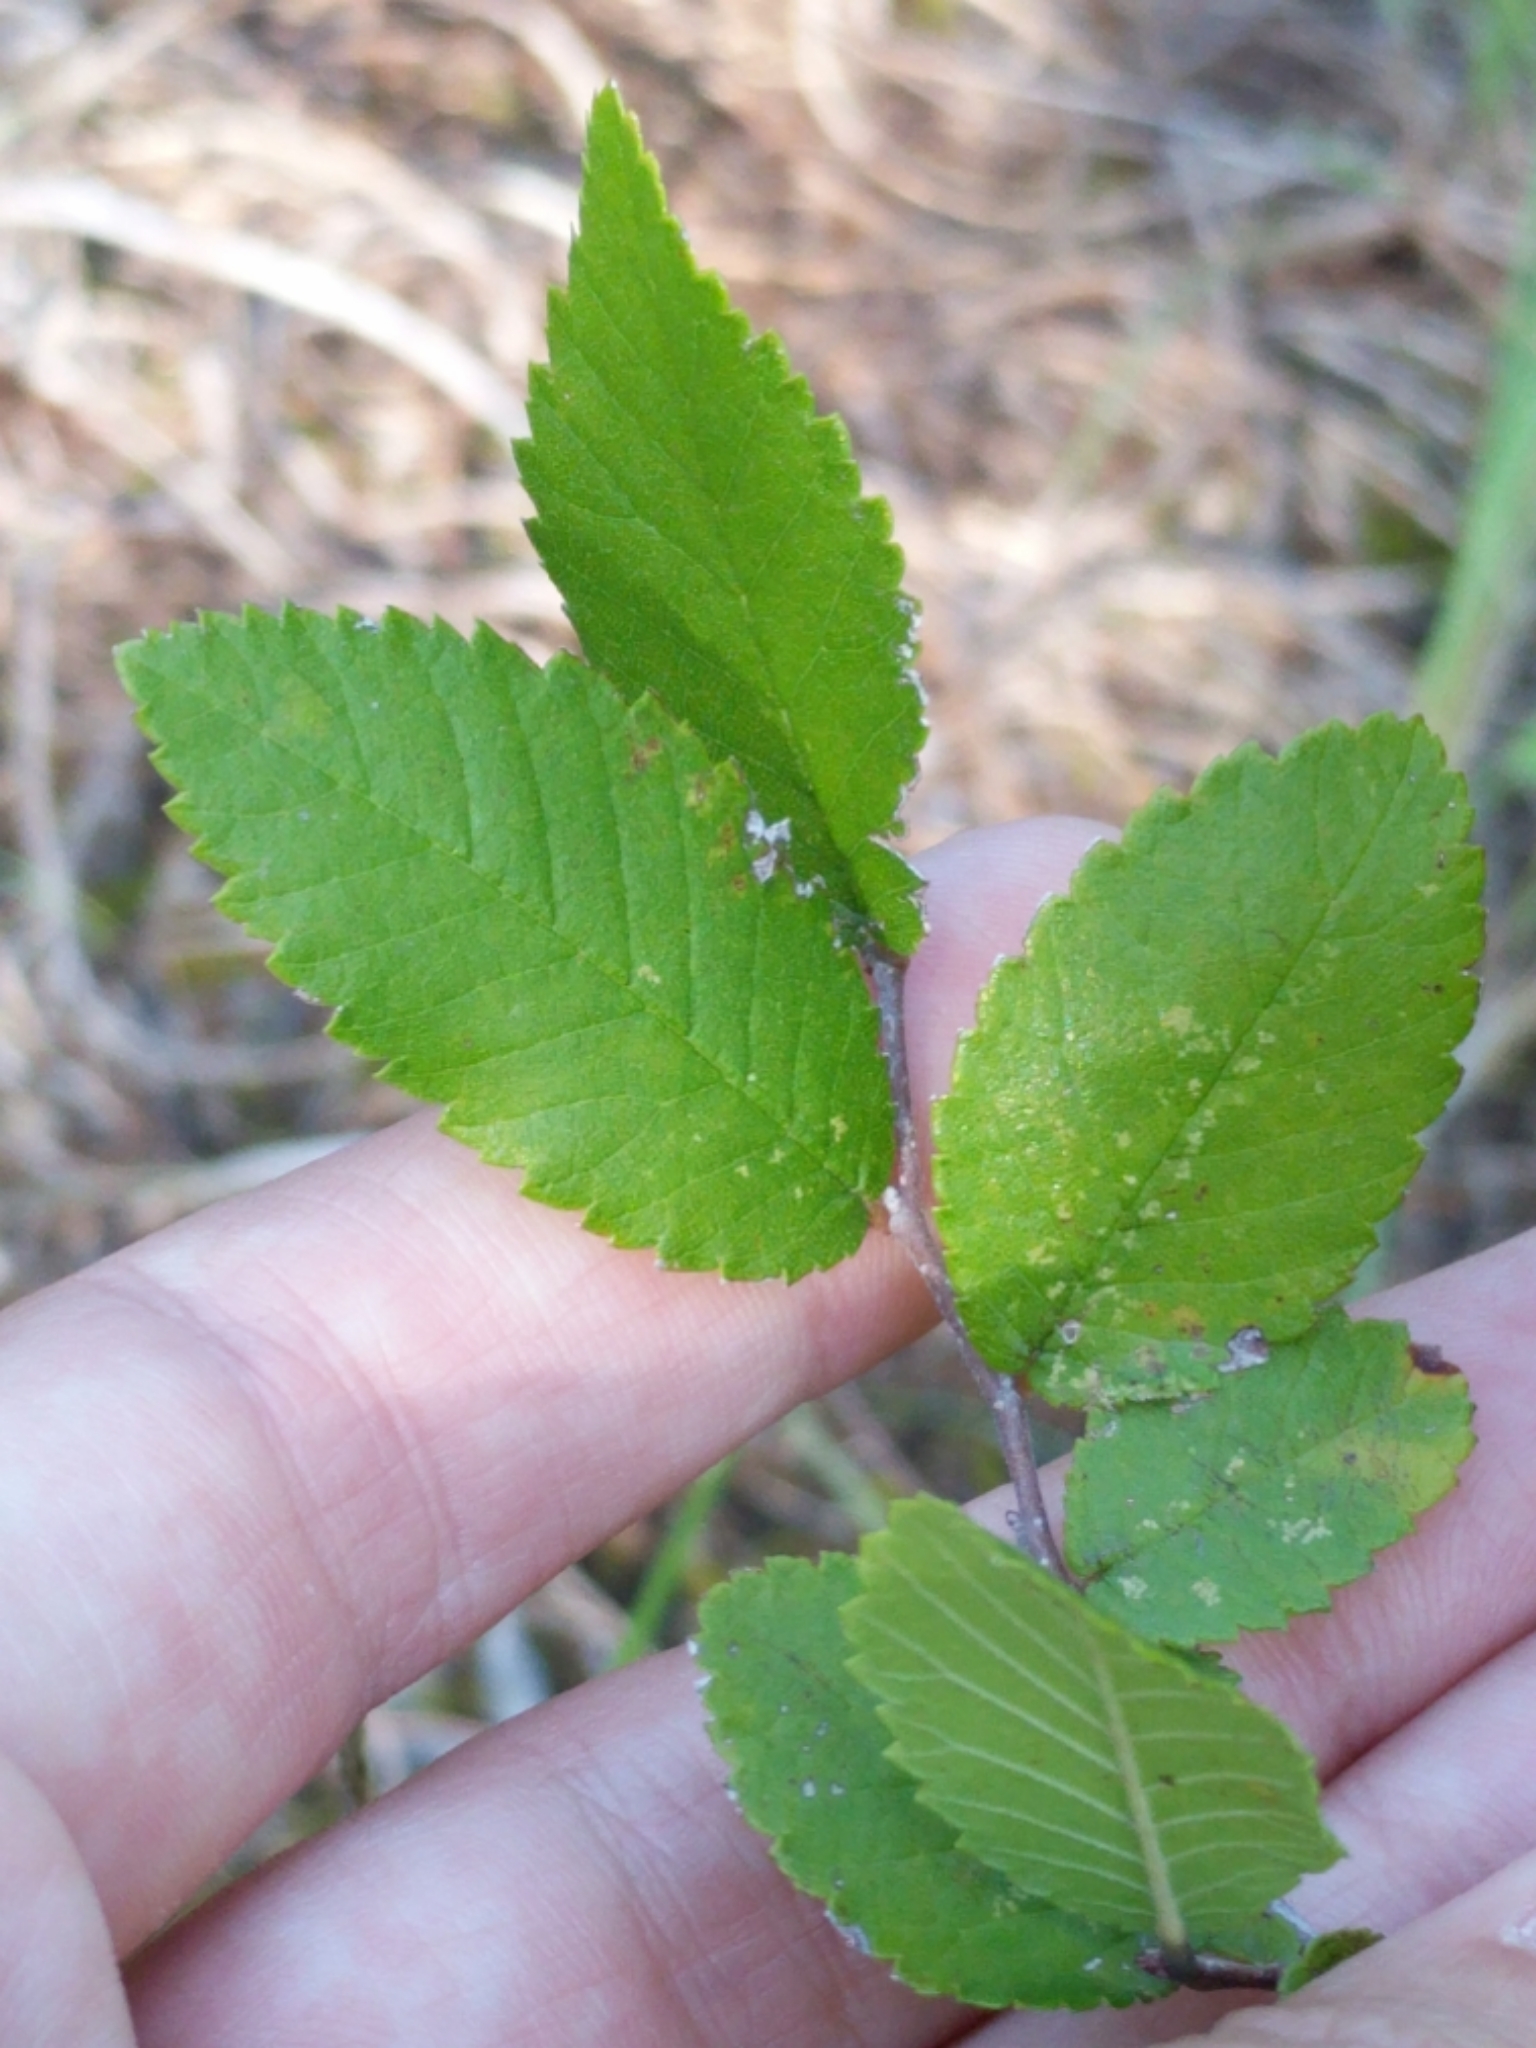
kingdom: Plantae
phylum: Tracheophyta
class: Magnoliopsida
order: Rosales
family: Ulmaceae
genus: Ulmus
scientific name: Ulmus crassifolia
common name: Basket elm
